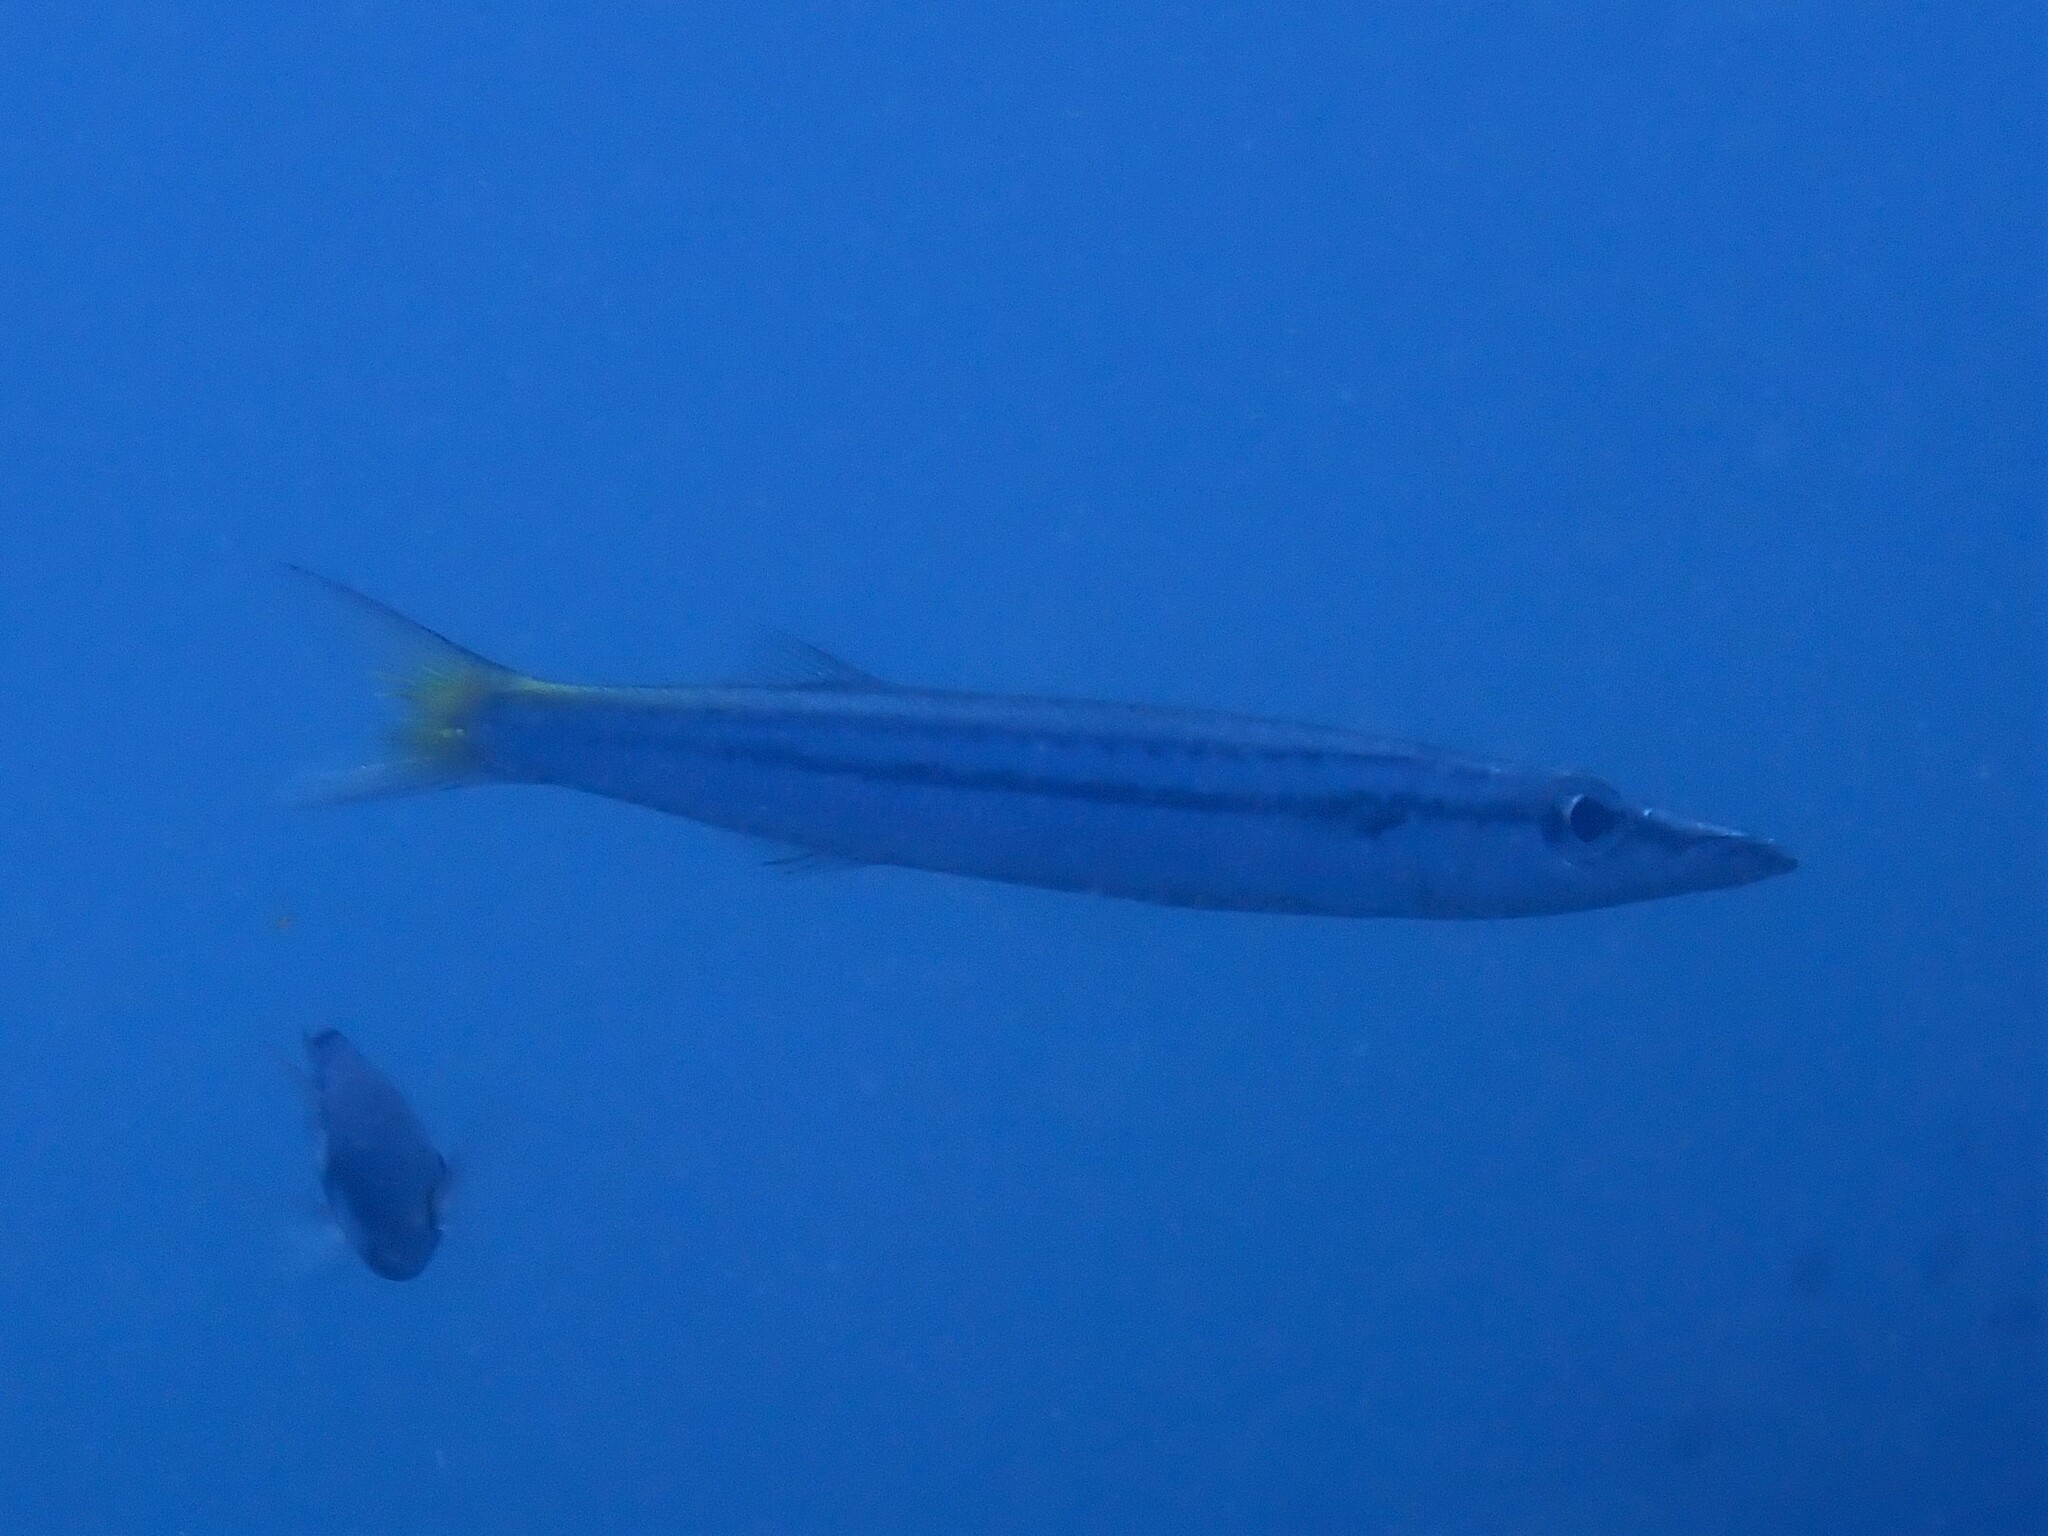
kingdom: Animalia
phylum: Chordata
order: Perciformes
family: Sphyraenidae
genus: Sphyraena
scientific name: Sphyraena obtusata
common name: Obtuse barracuda
